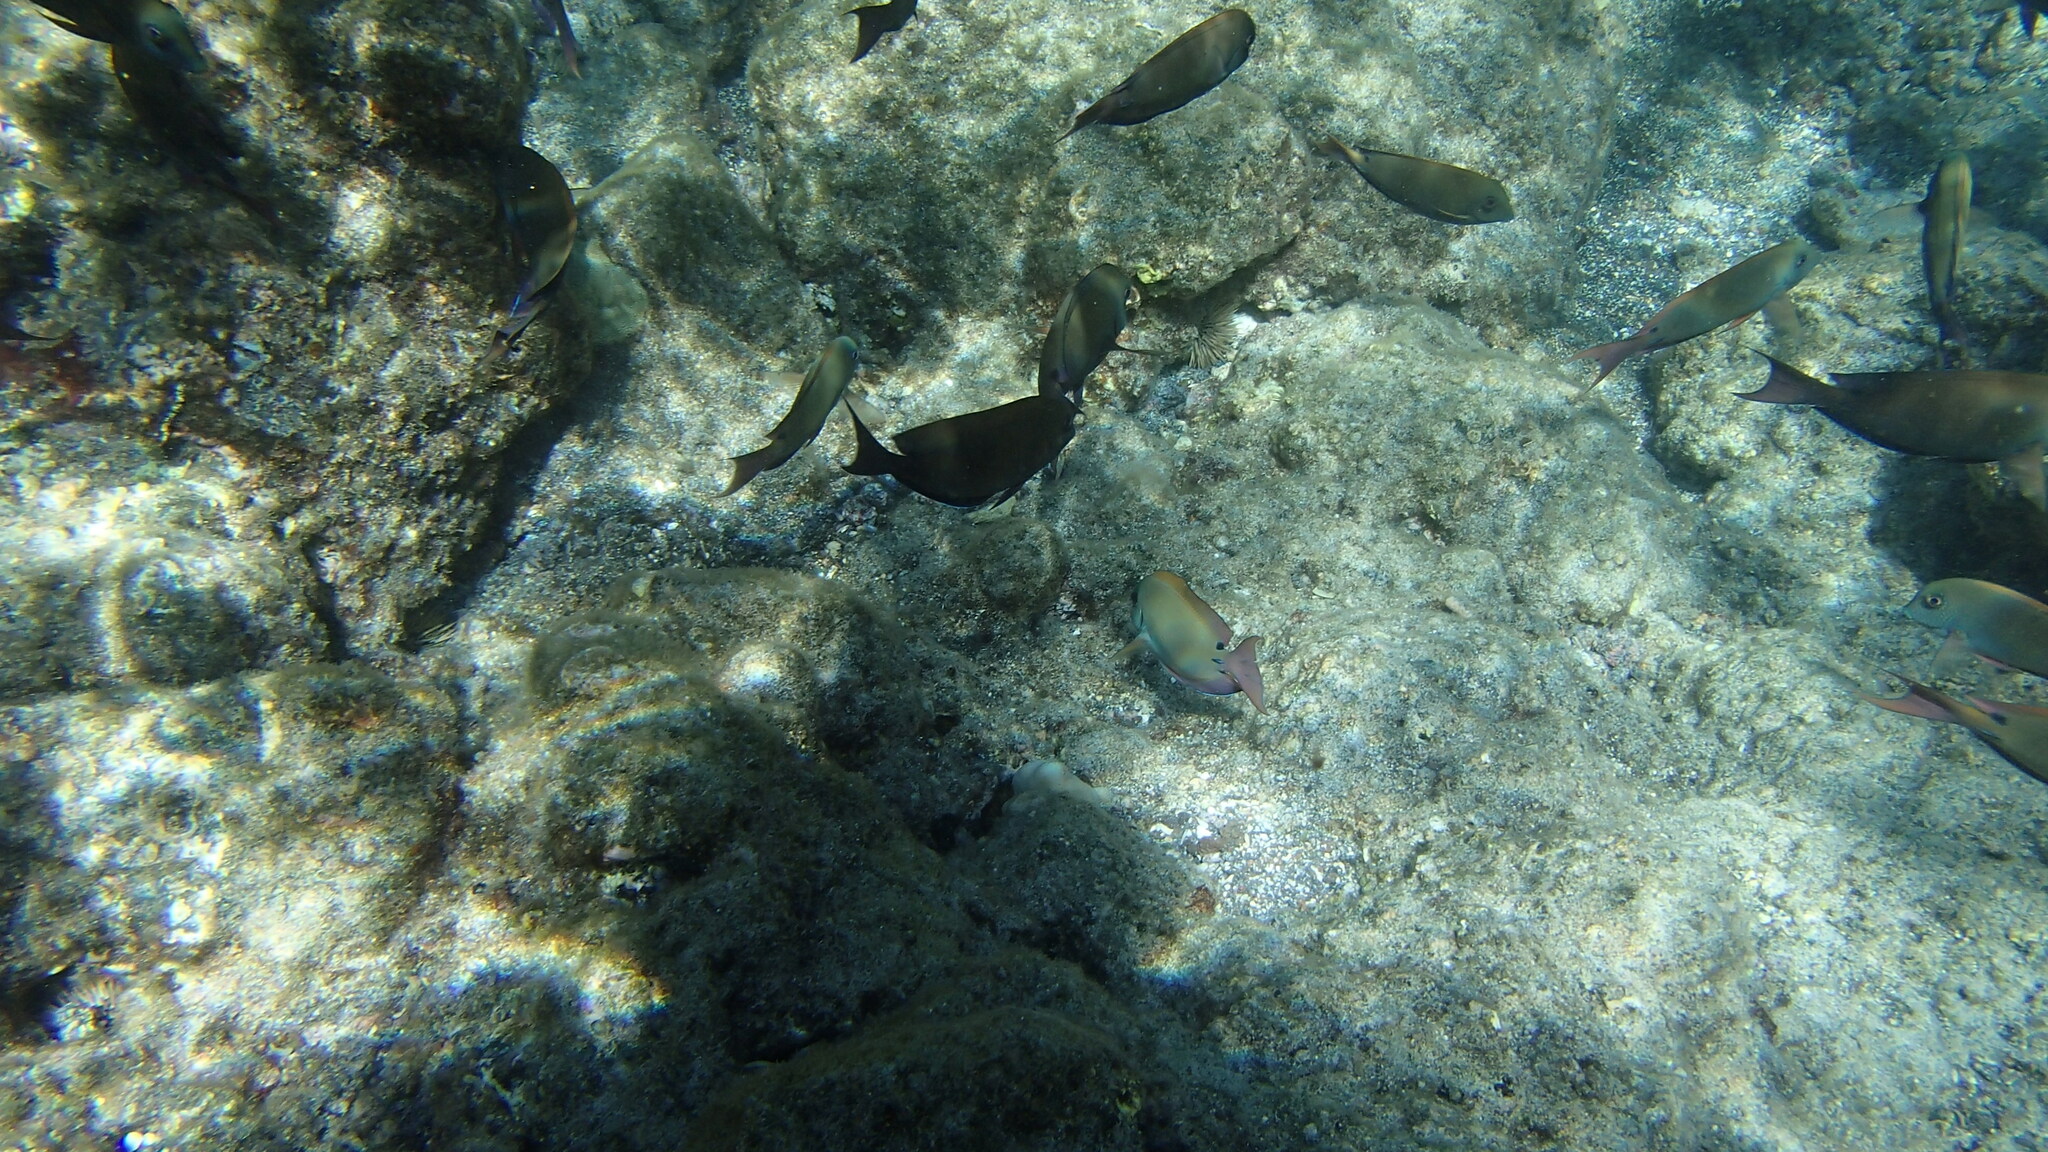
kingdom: Animalia
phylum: Chordata
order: Perciformes
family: Acanthuridae
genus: Acanthurus
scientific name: Acanthurus nigrofuscus
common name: Blackspot surgeonfish
